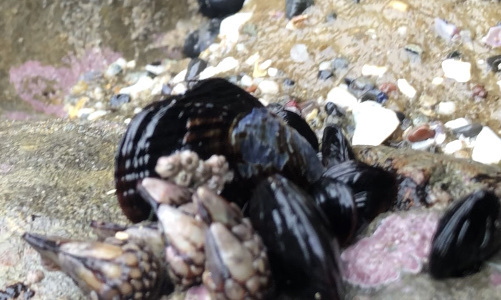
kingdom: Animalia
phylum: Mollusca
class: Bivalvia
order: Mytilida
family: Mytilidae
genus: Mytilus
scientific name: Mytilus californianus
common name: California mussel
